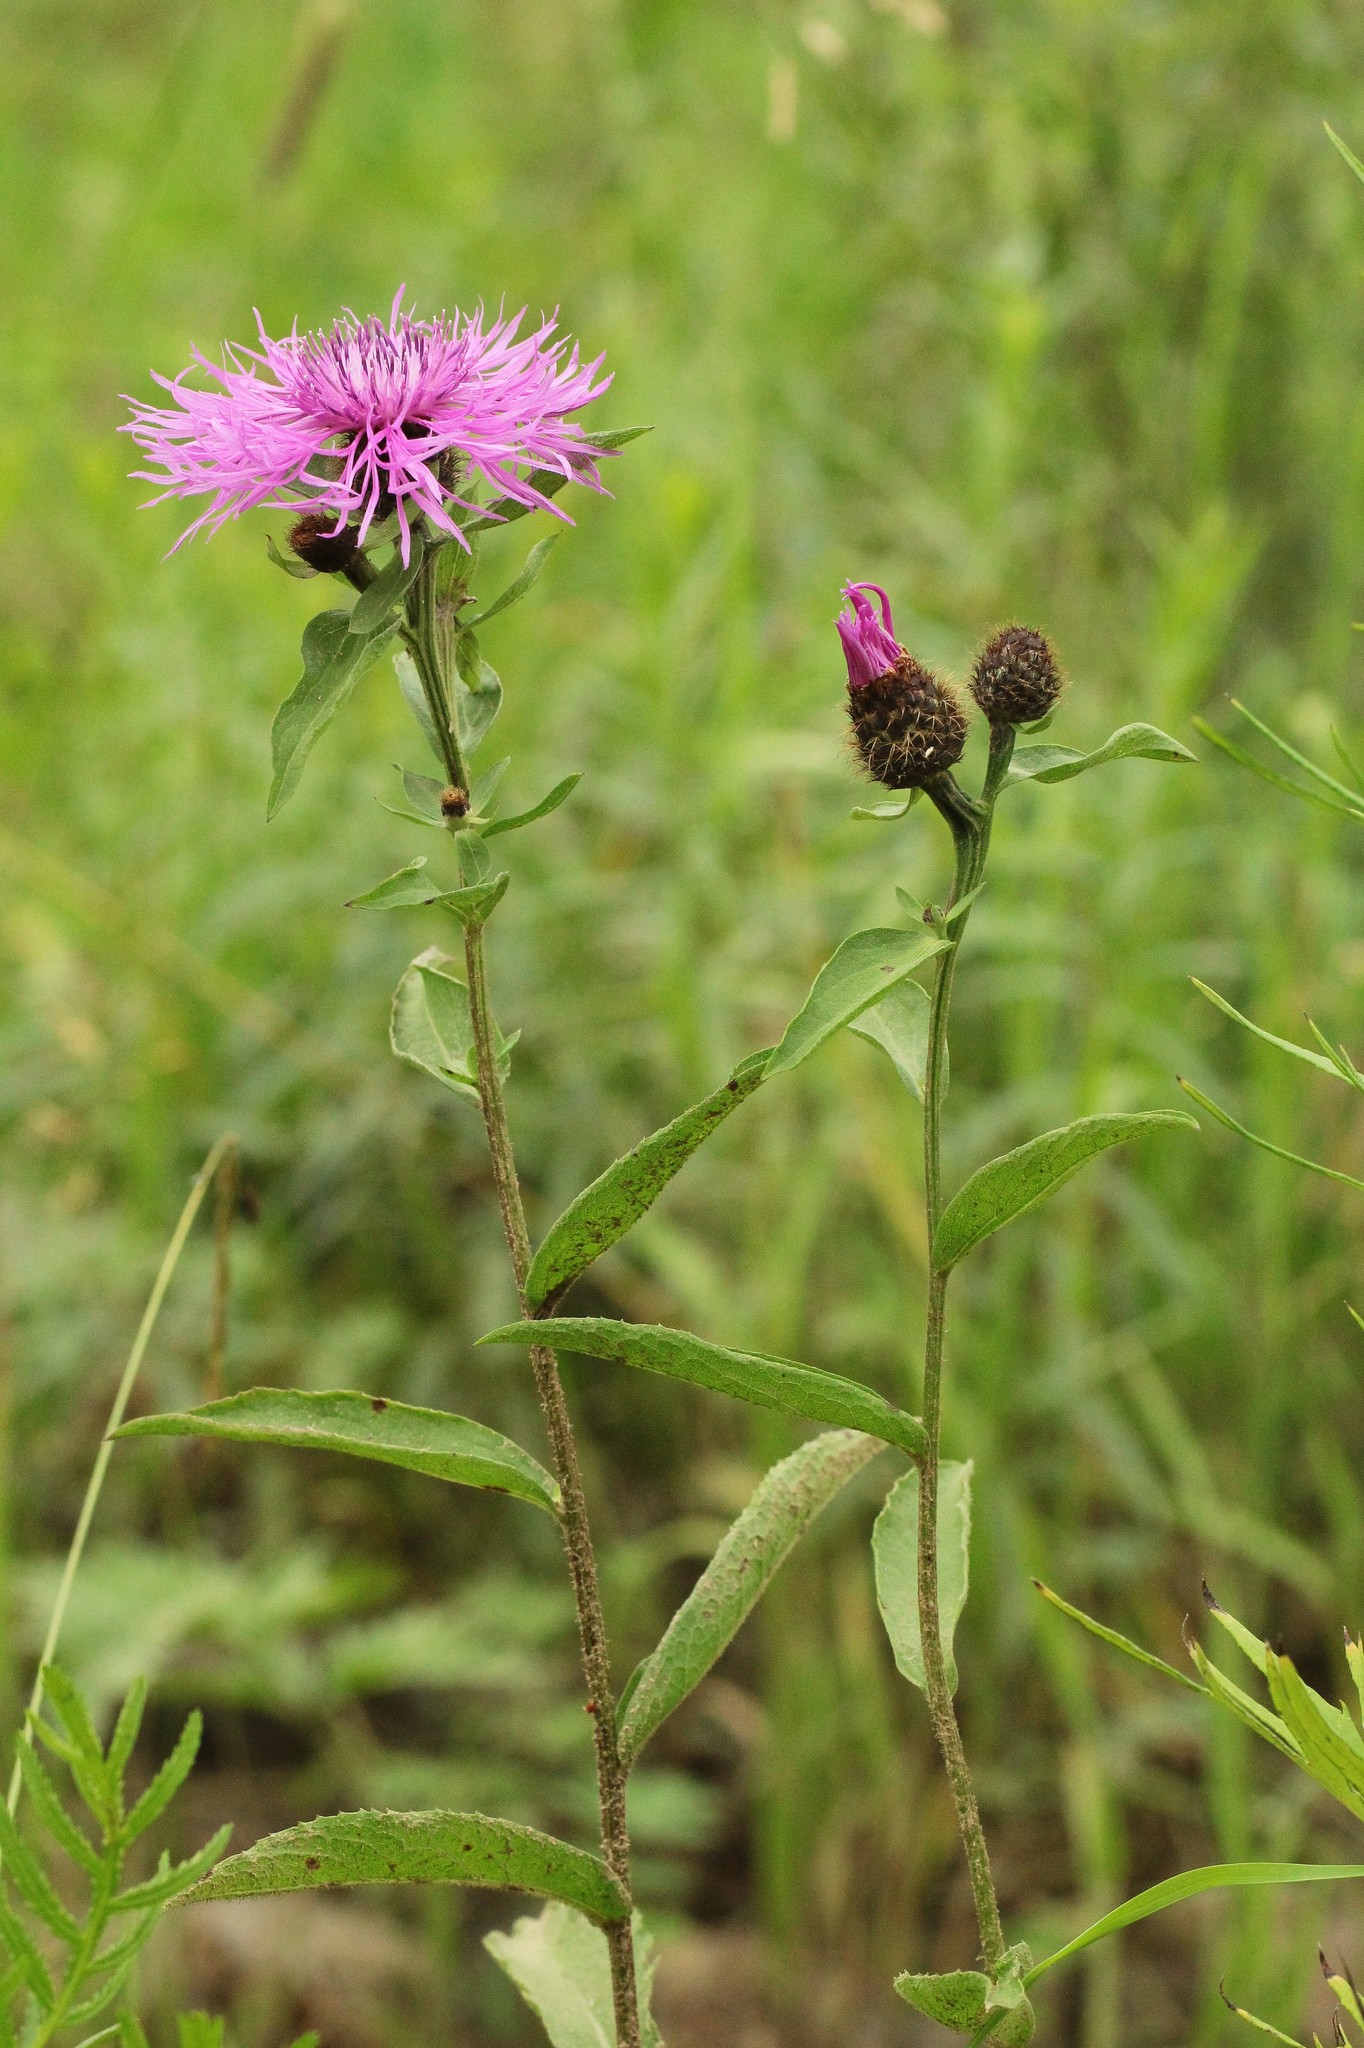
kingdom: Plantae
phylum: Tracheophyta
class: Magnoliopsida
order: Asterales
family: Asteraceae
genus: Centaurea
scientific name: Centaurea pseudophrygia
